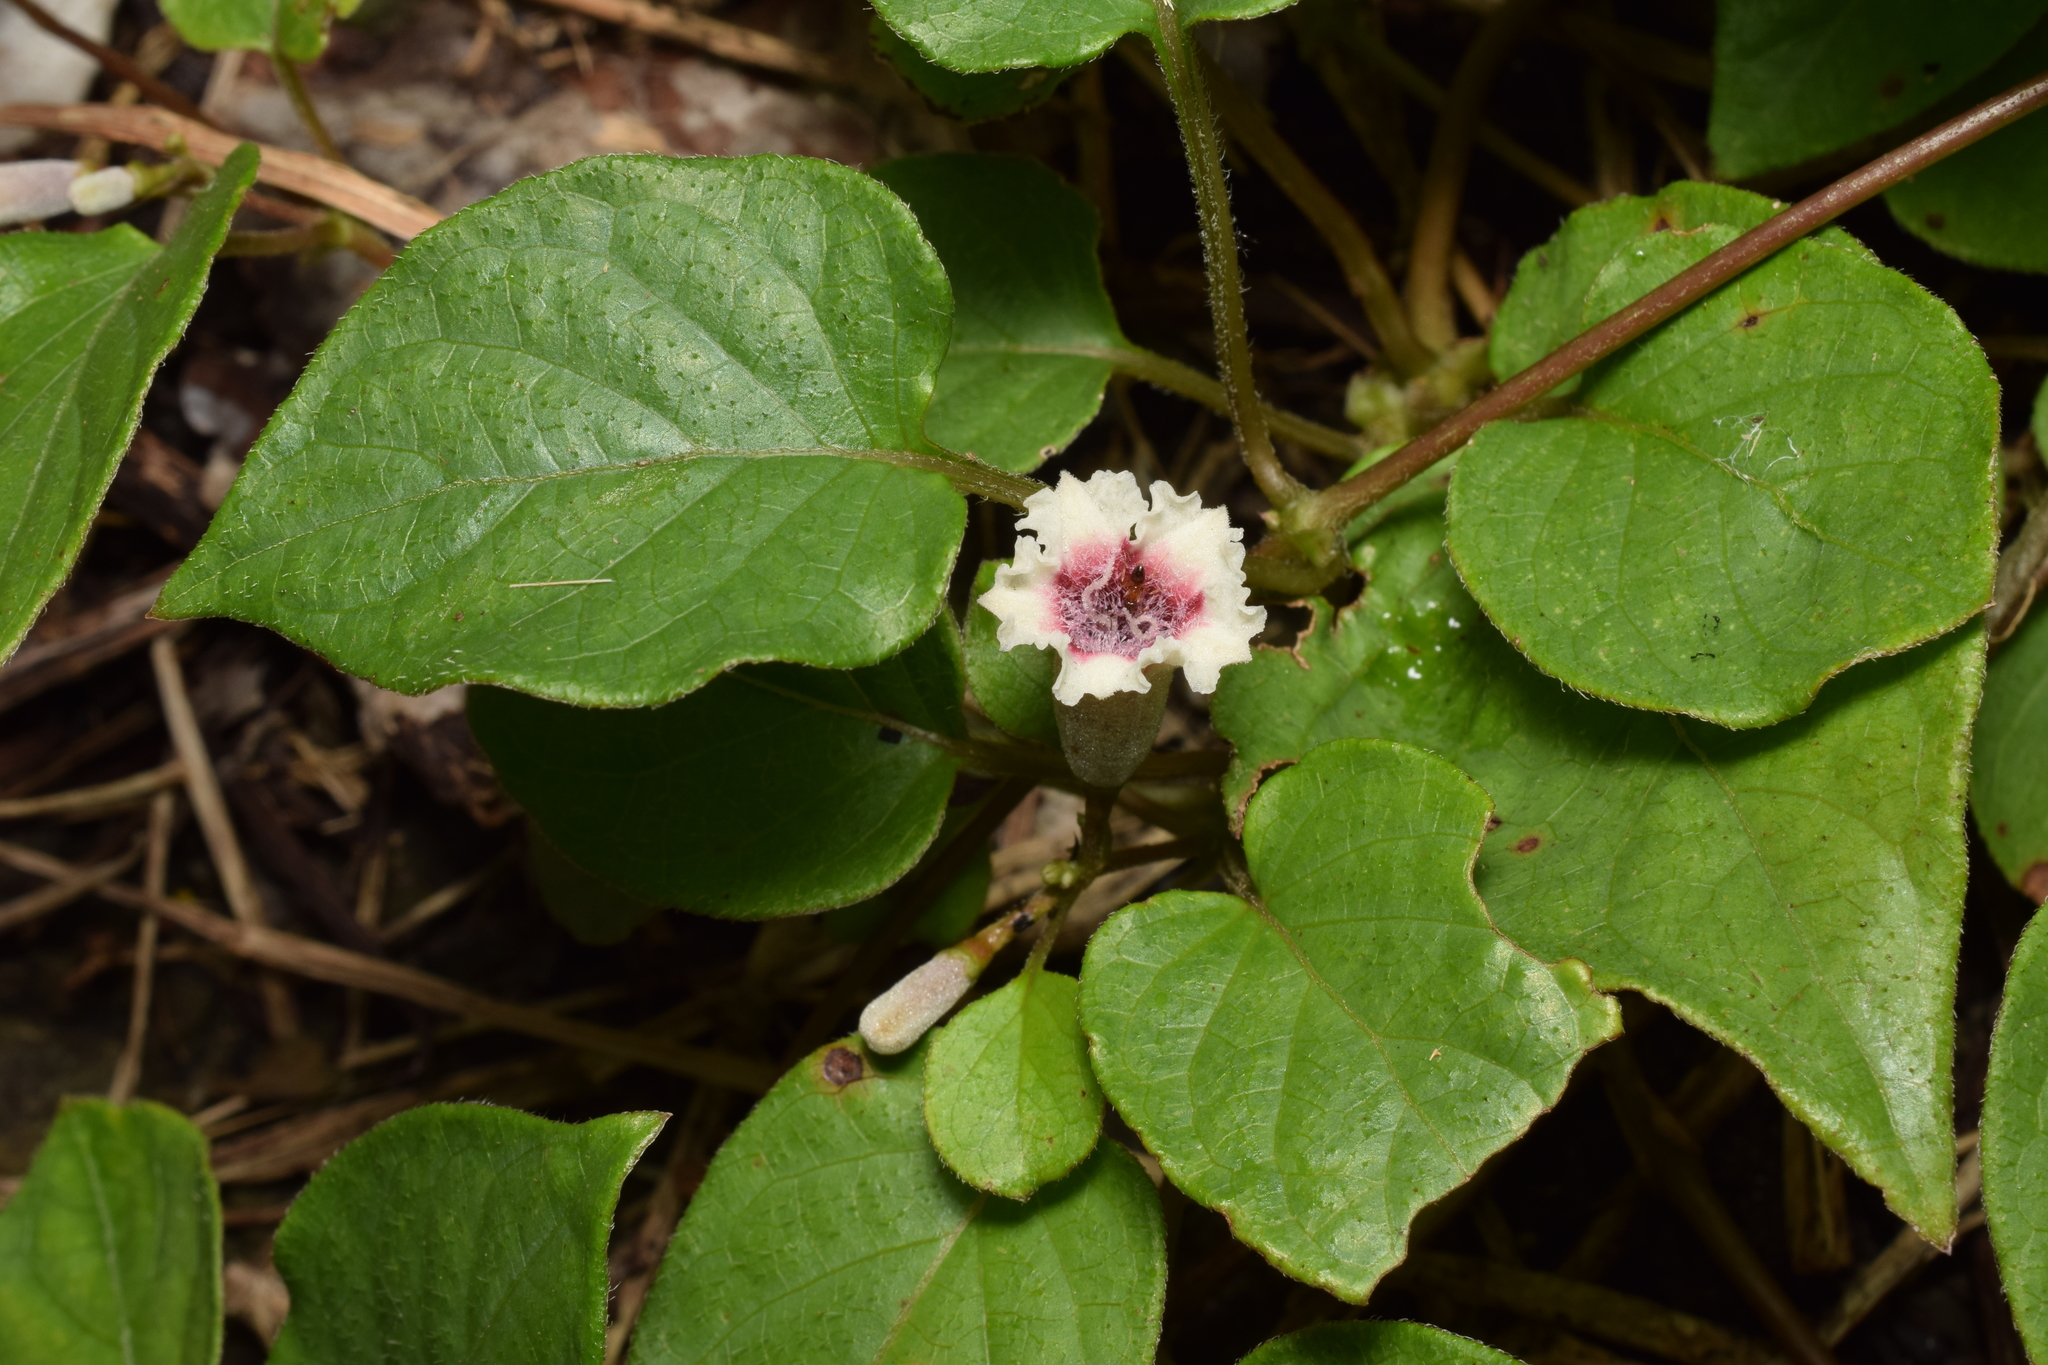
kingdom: Plantae
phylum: Tracheophyta
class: Magnoliopsida
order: Gentianales
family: Rubiaceae
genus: Paederia
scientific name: Paederia foetida
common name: Stinkvine
